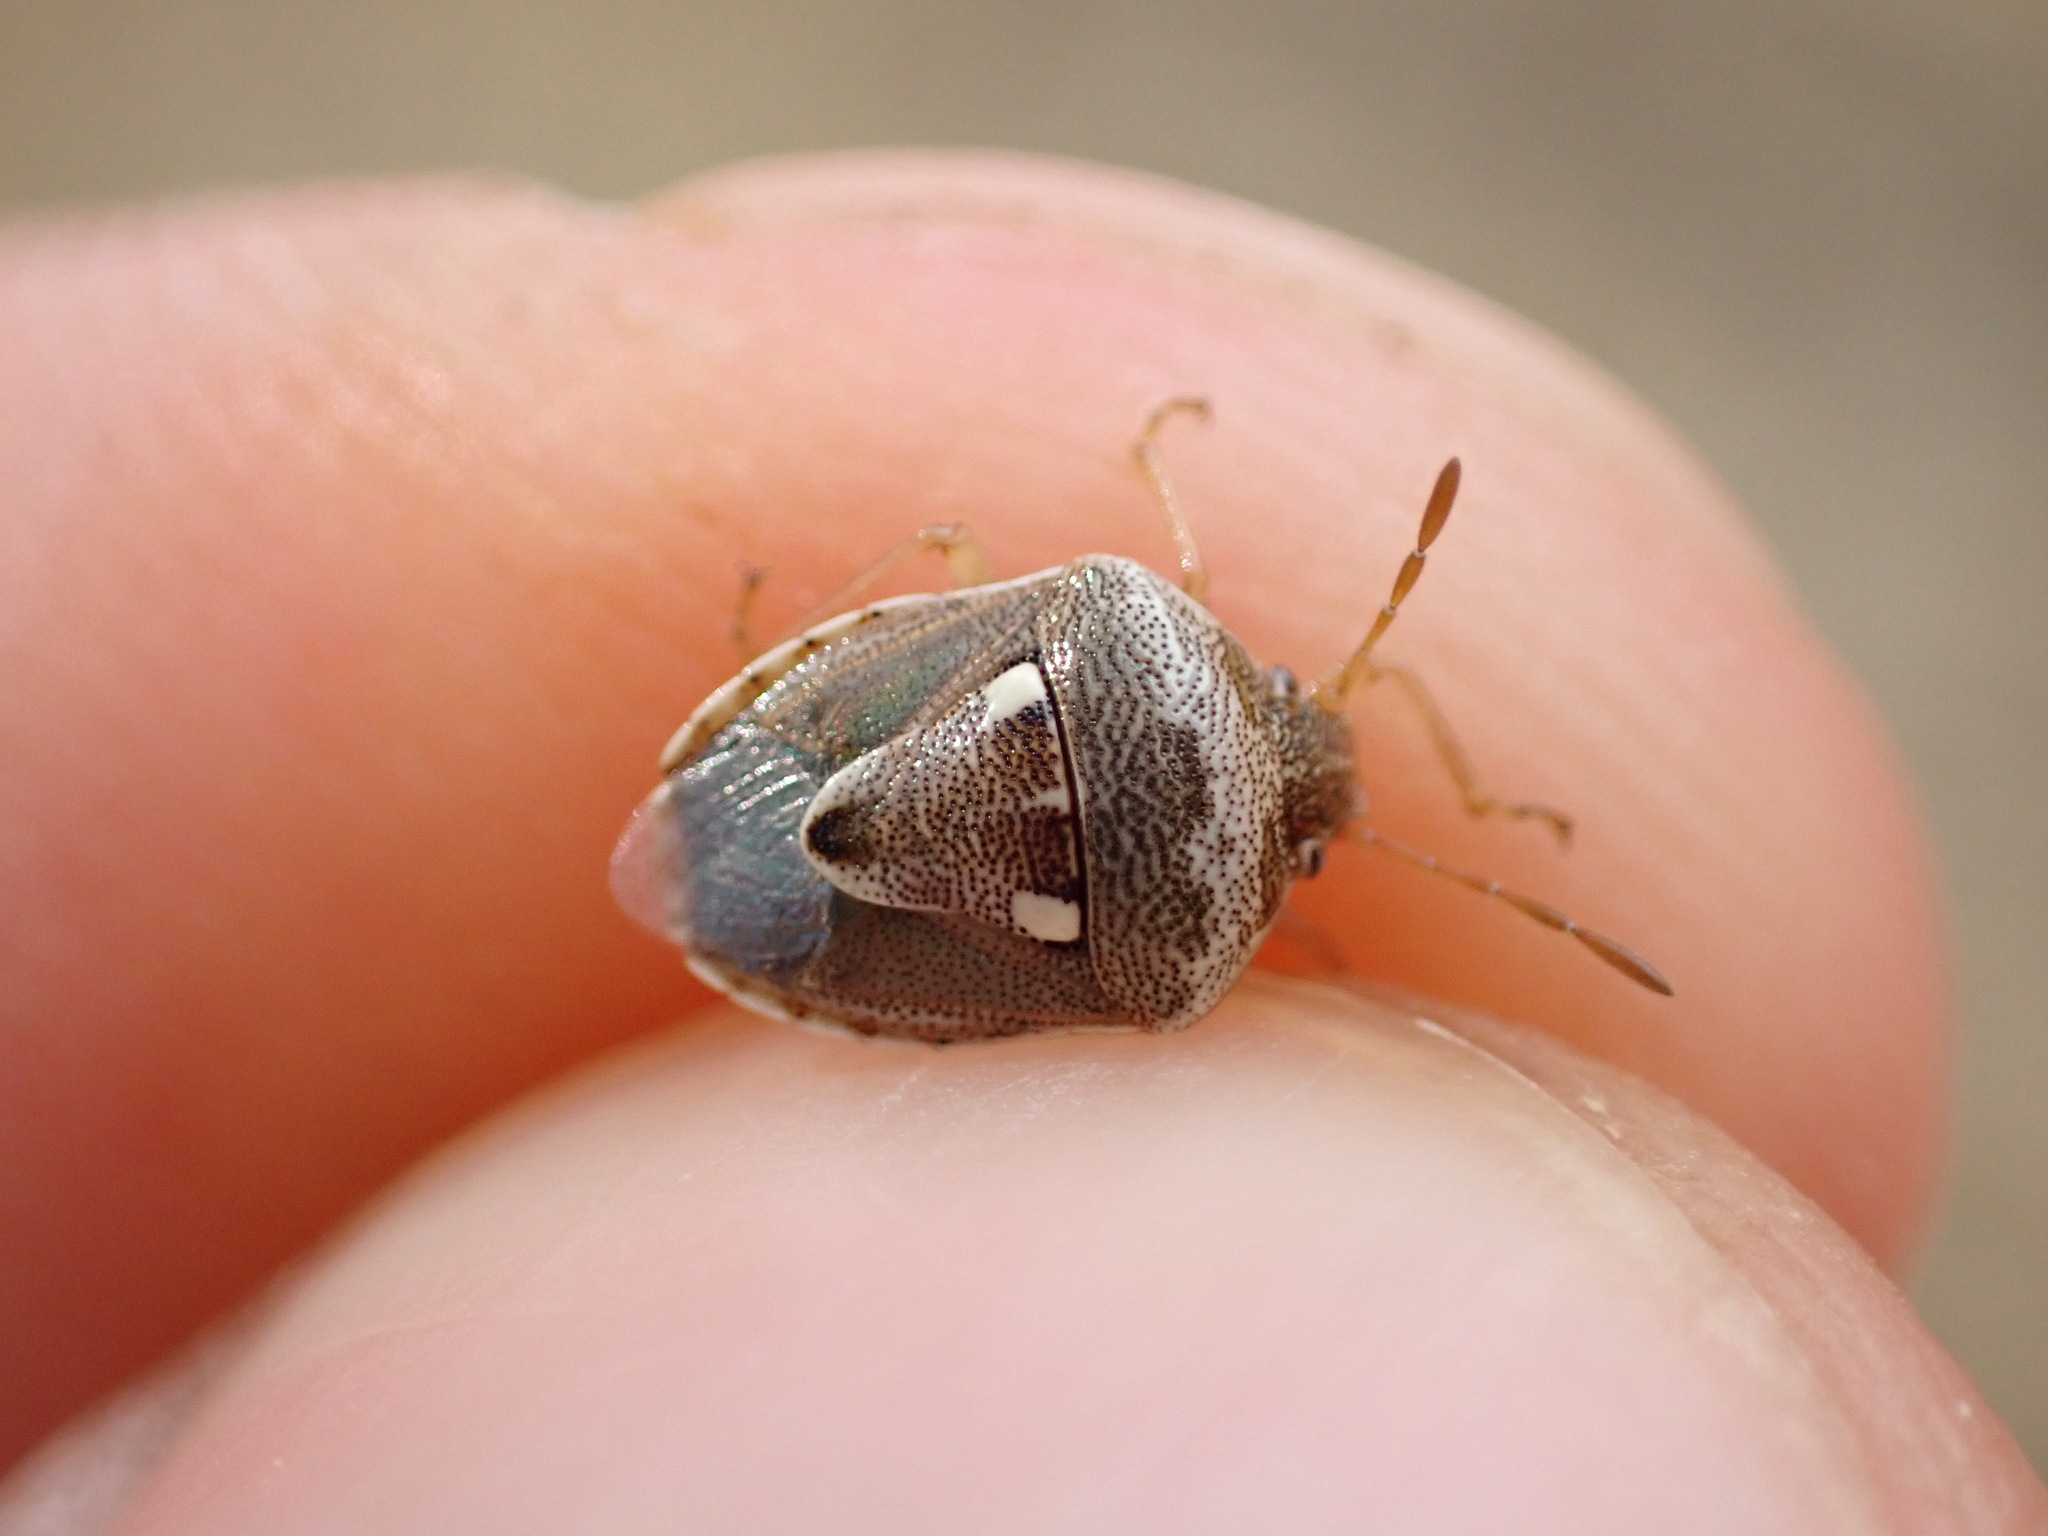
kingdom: Animalia
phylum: Arthropoda
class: Insecta
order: Hemiptera
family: Pentatomidae
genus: Stagonomus
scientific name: Stagonomus bipunctatus
